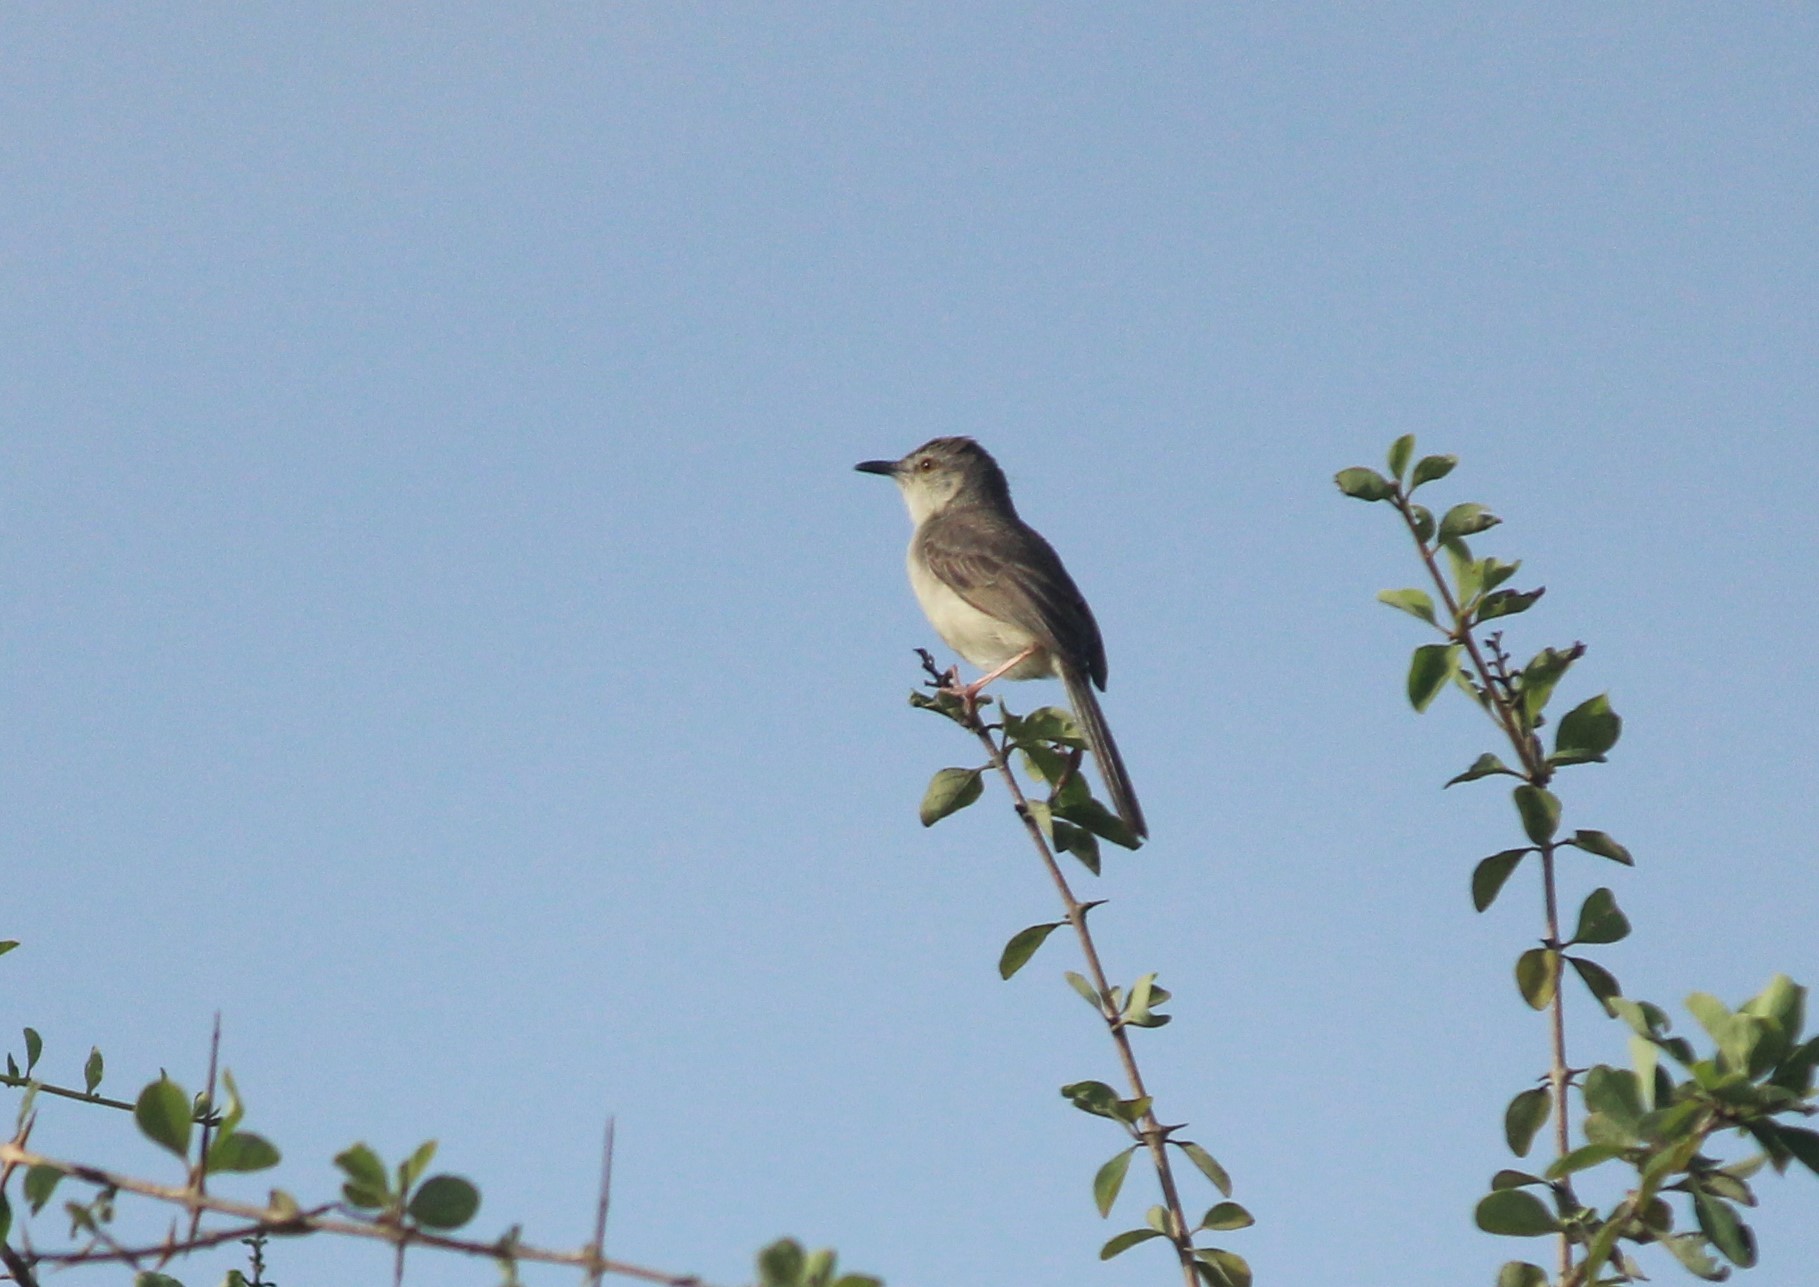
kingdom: Animalia
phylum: Chordata
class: Aves
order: Passeriformes
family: Cisticolidae
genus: Prinia
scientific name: Prinia inornata
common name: Plain prinia
